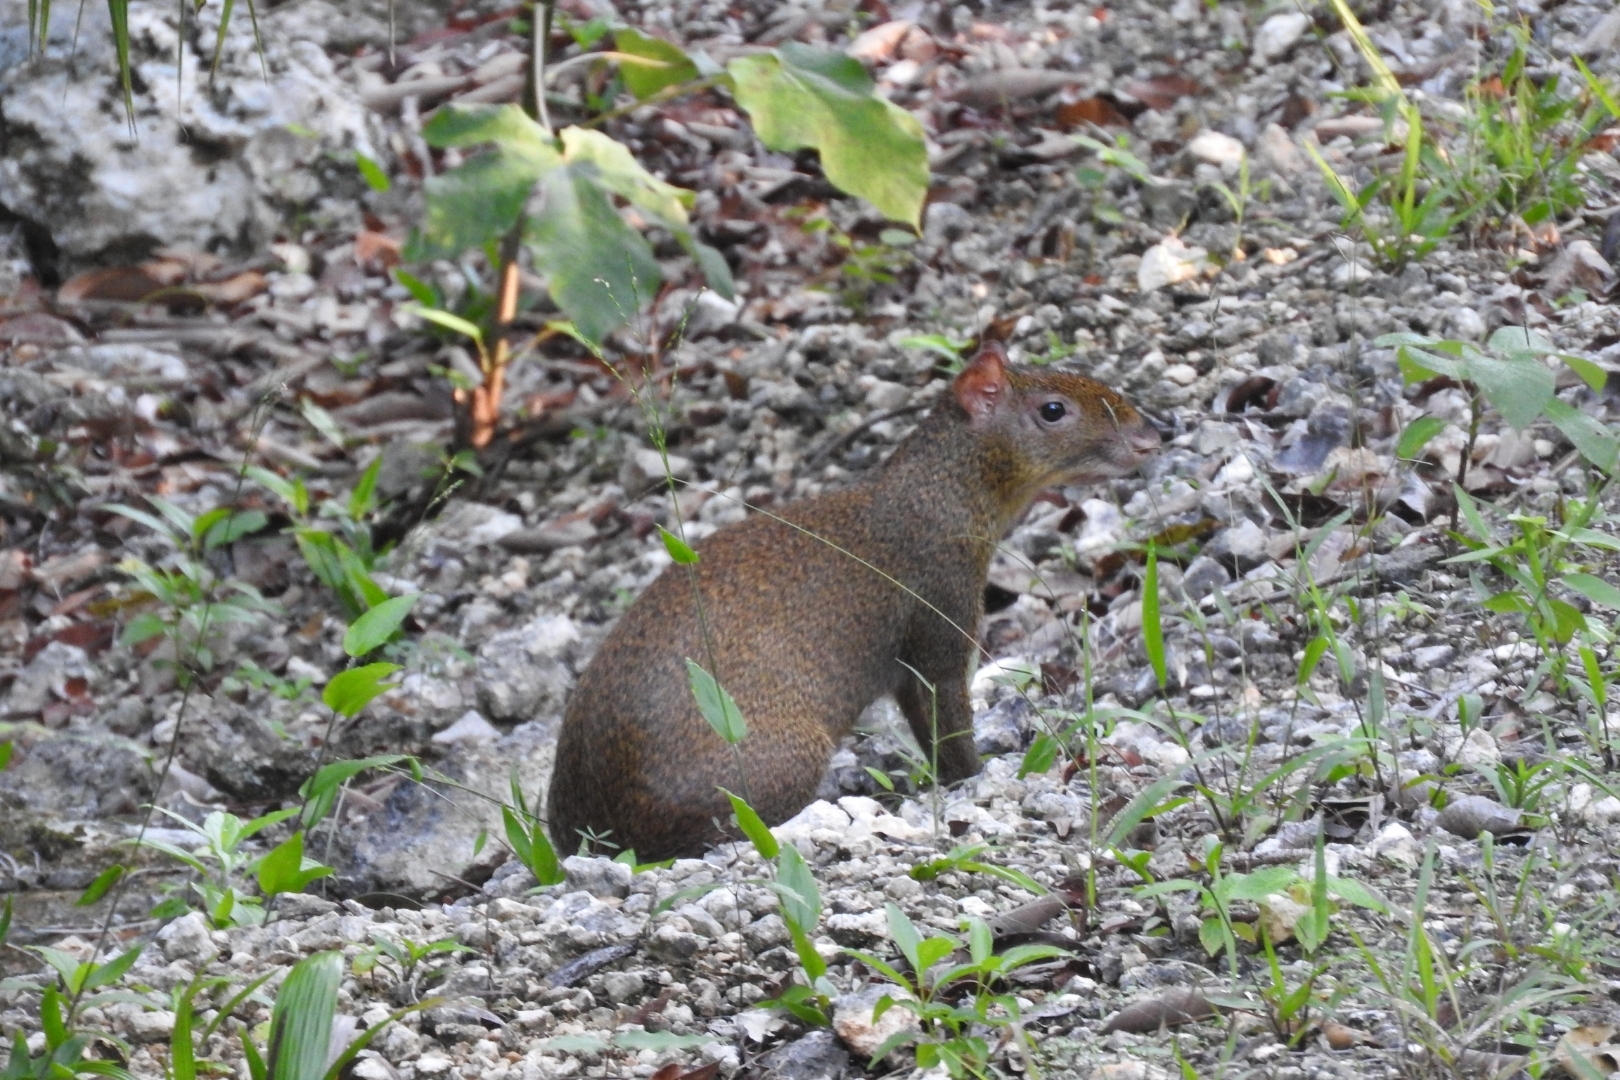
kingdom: Animalia
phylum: Chordata
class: Mammalia
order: Rodentia
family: Dasyproctidae
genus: Dasyprocta
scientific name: Dasyprocta punctata
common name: Central american agouti
